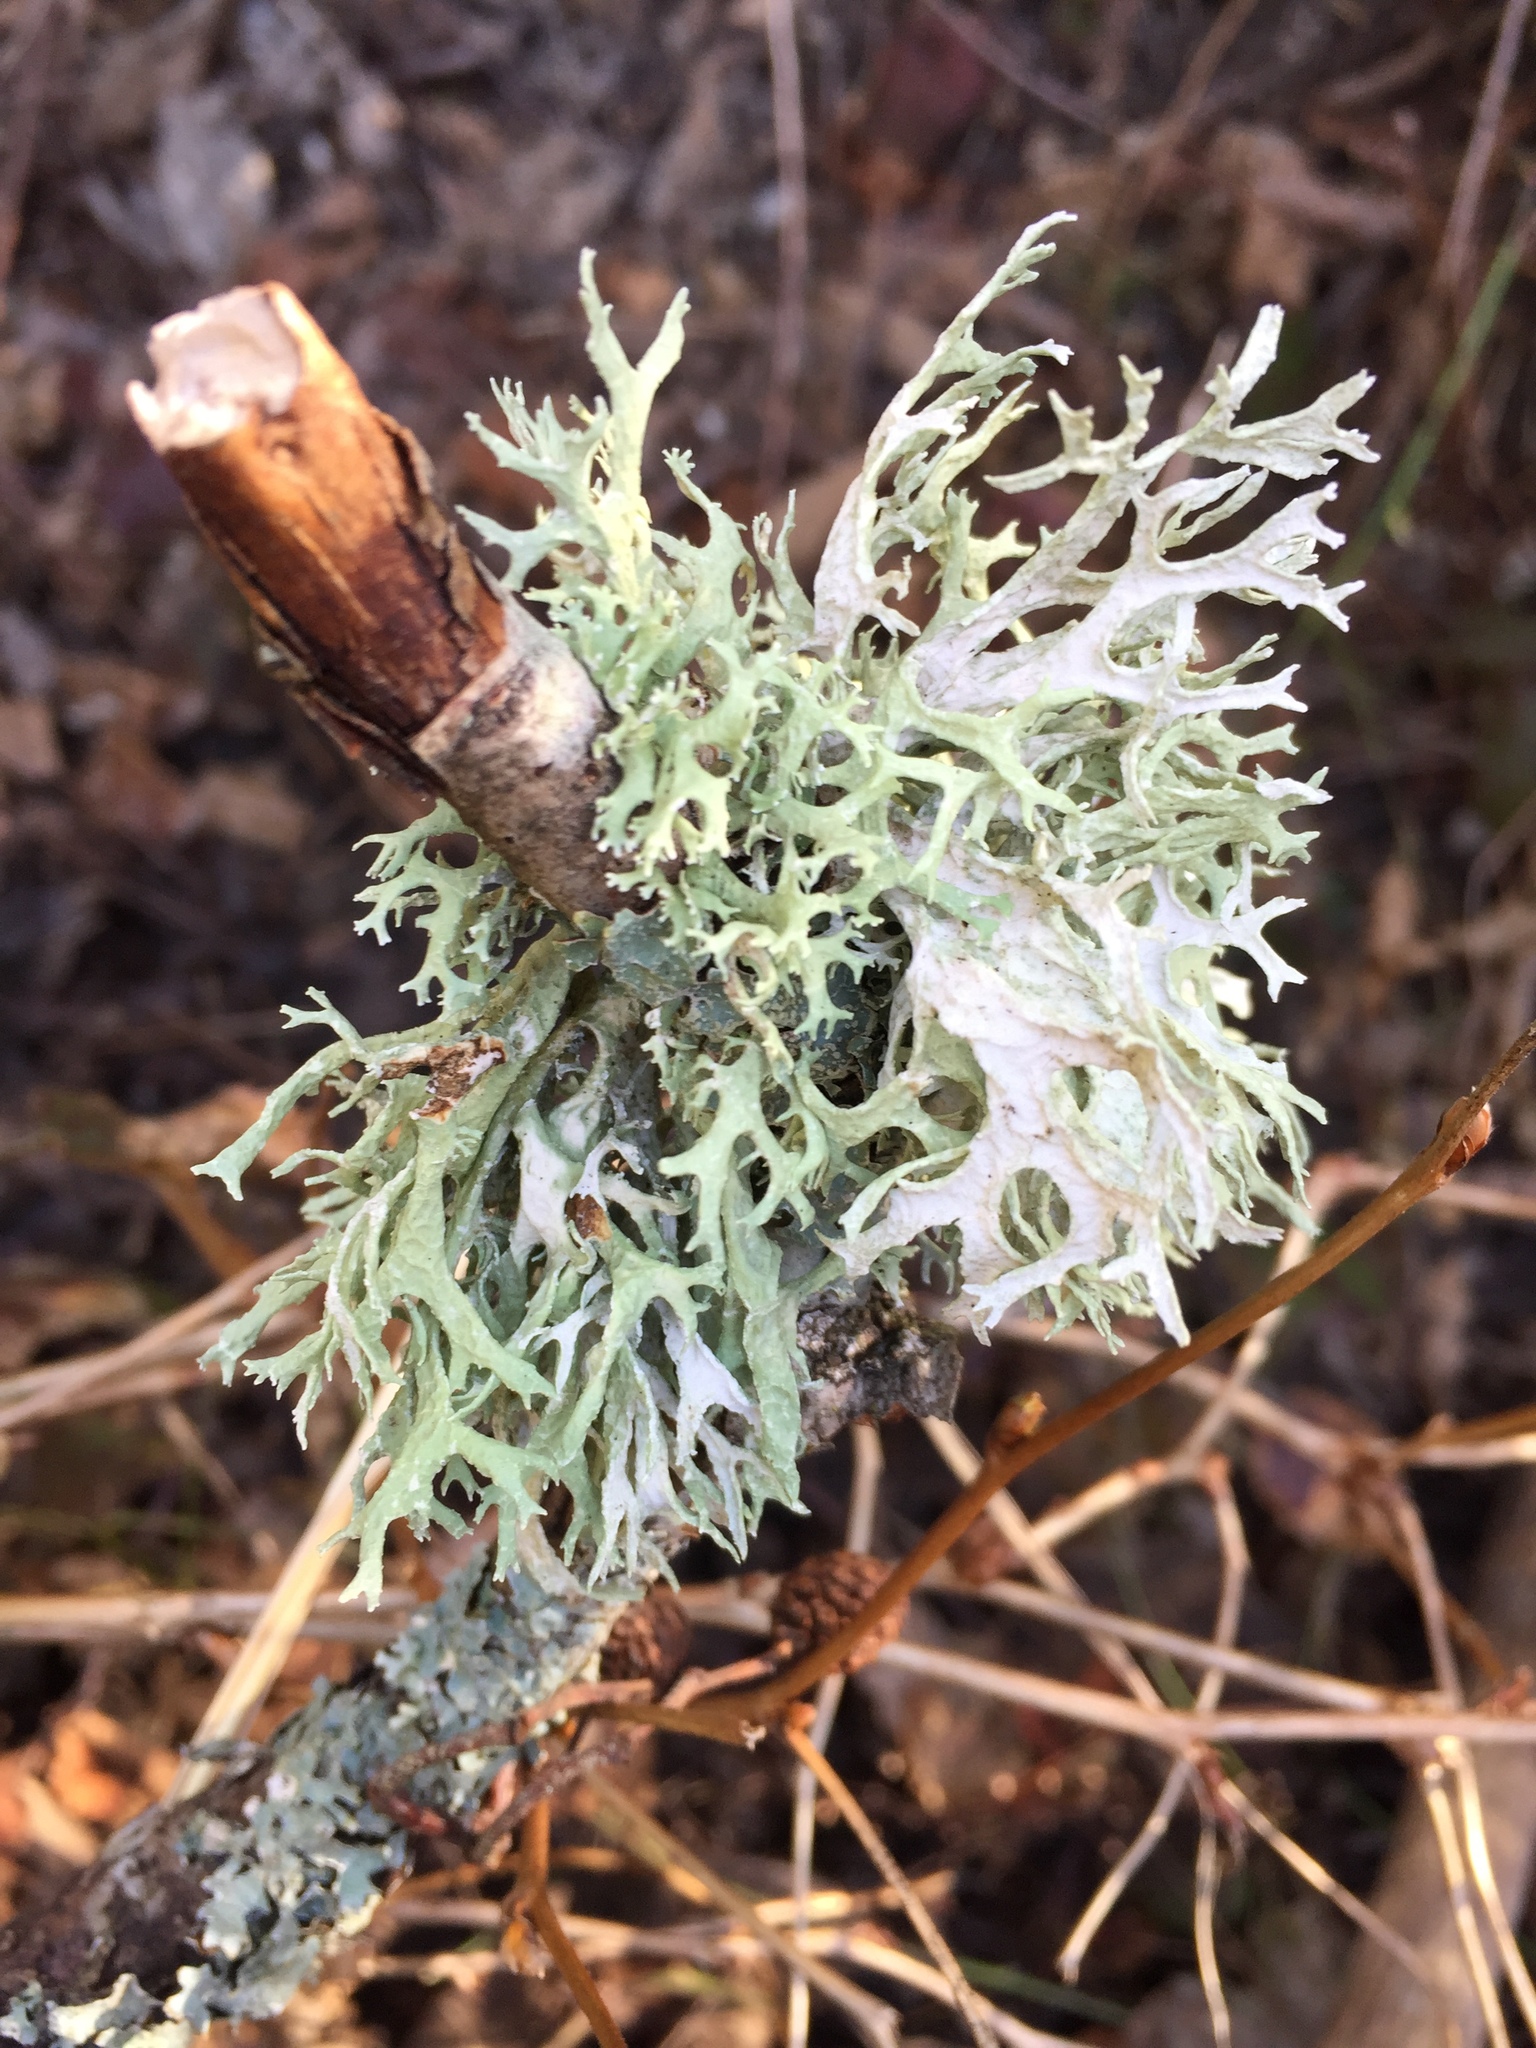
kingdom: Fungi
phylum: Ascomycota
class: Lecanoromycetes
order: Lecanorales
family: Parmeliaceae
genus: Evernia
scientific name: Evernia prunastri
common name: Oak moss
